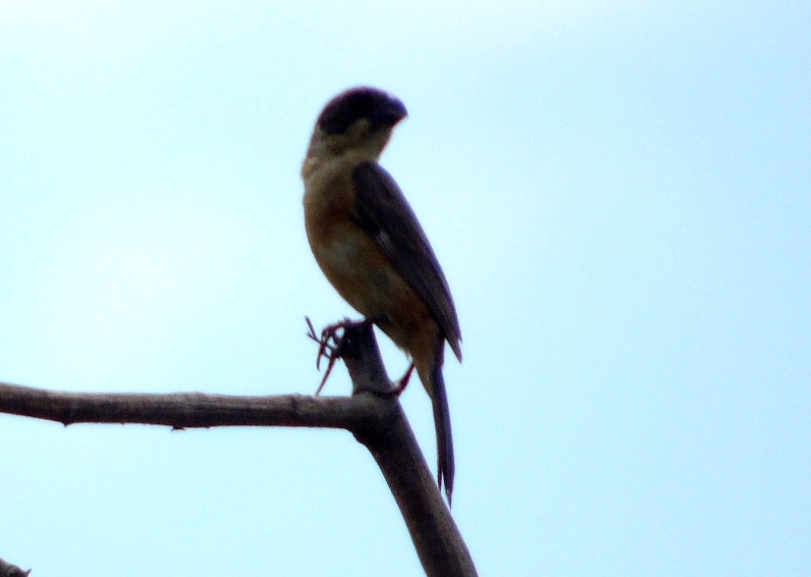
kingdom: Animalia
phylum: Chordata
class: Aves
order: Passeriformes
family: Thraupidae
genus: Sporophila
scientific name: Sporophila torqueola
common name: White-collared seedeater
